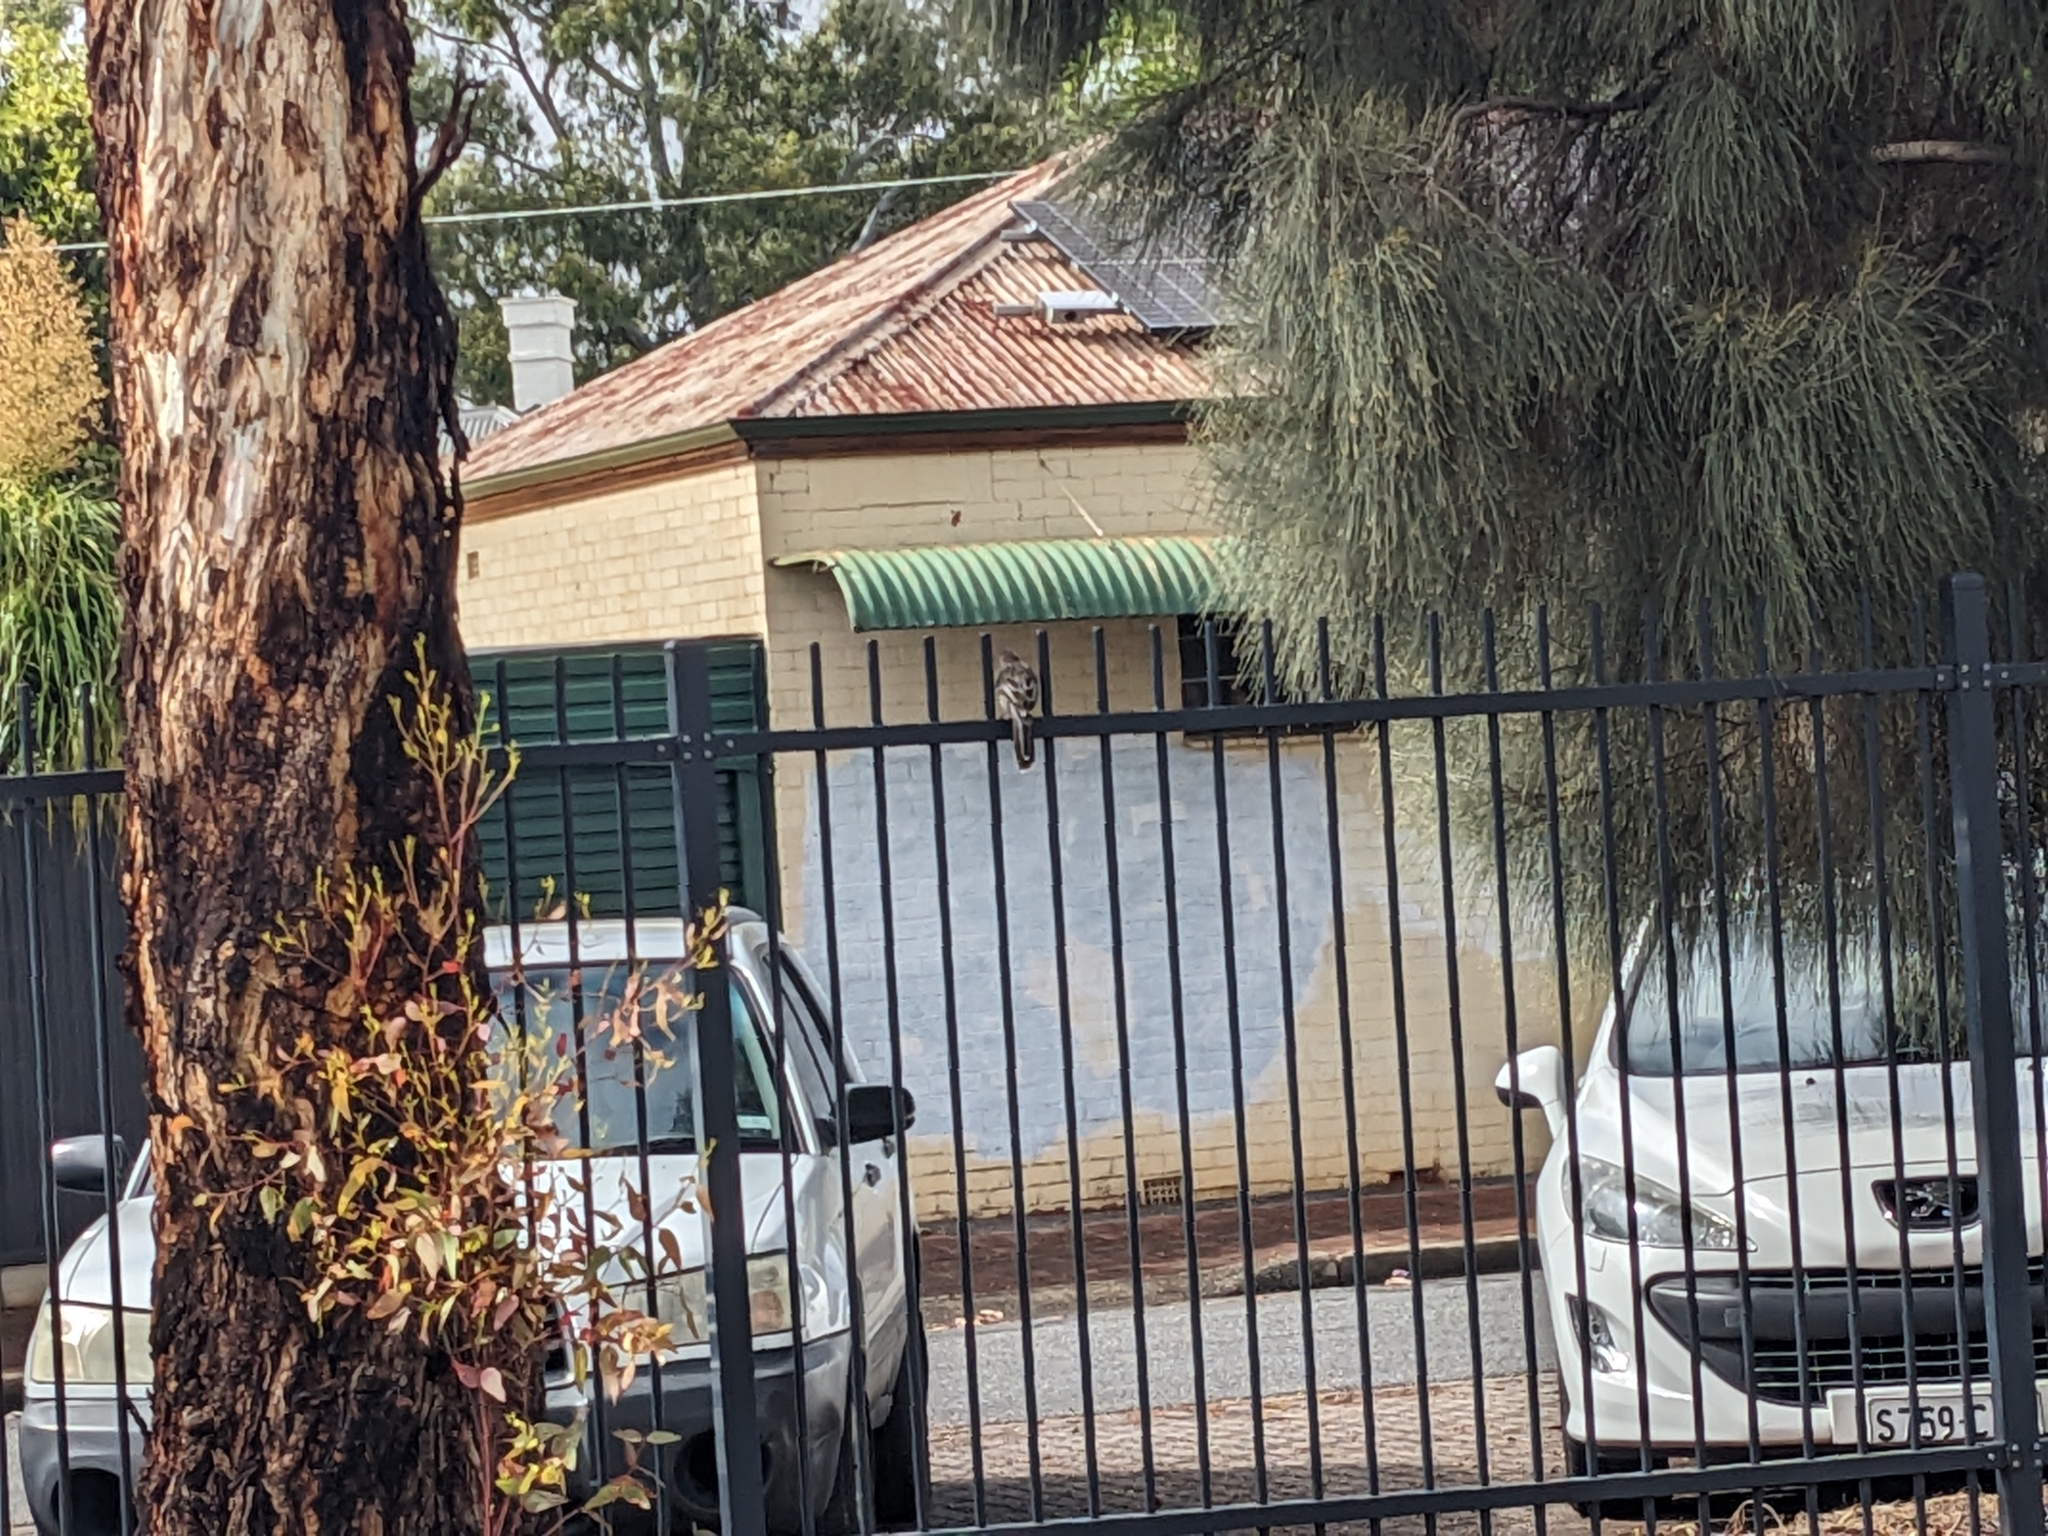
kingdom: Animalia
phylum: Chordata
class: Aves
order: Passeriformes
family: Meliphagidae
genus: Anthochaera
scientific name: Anthochaera carunculata
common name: Red wattlebird
